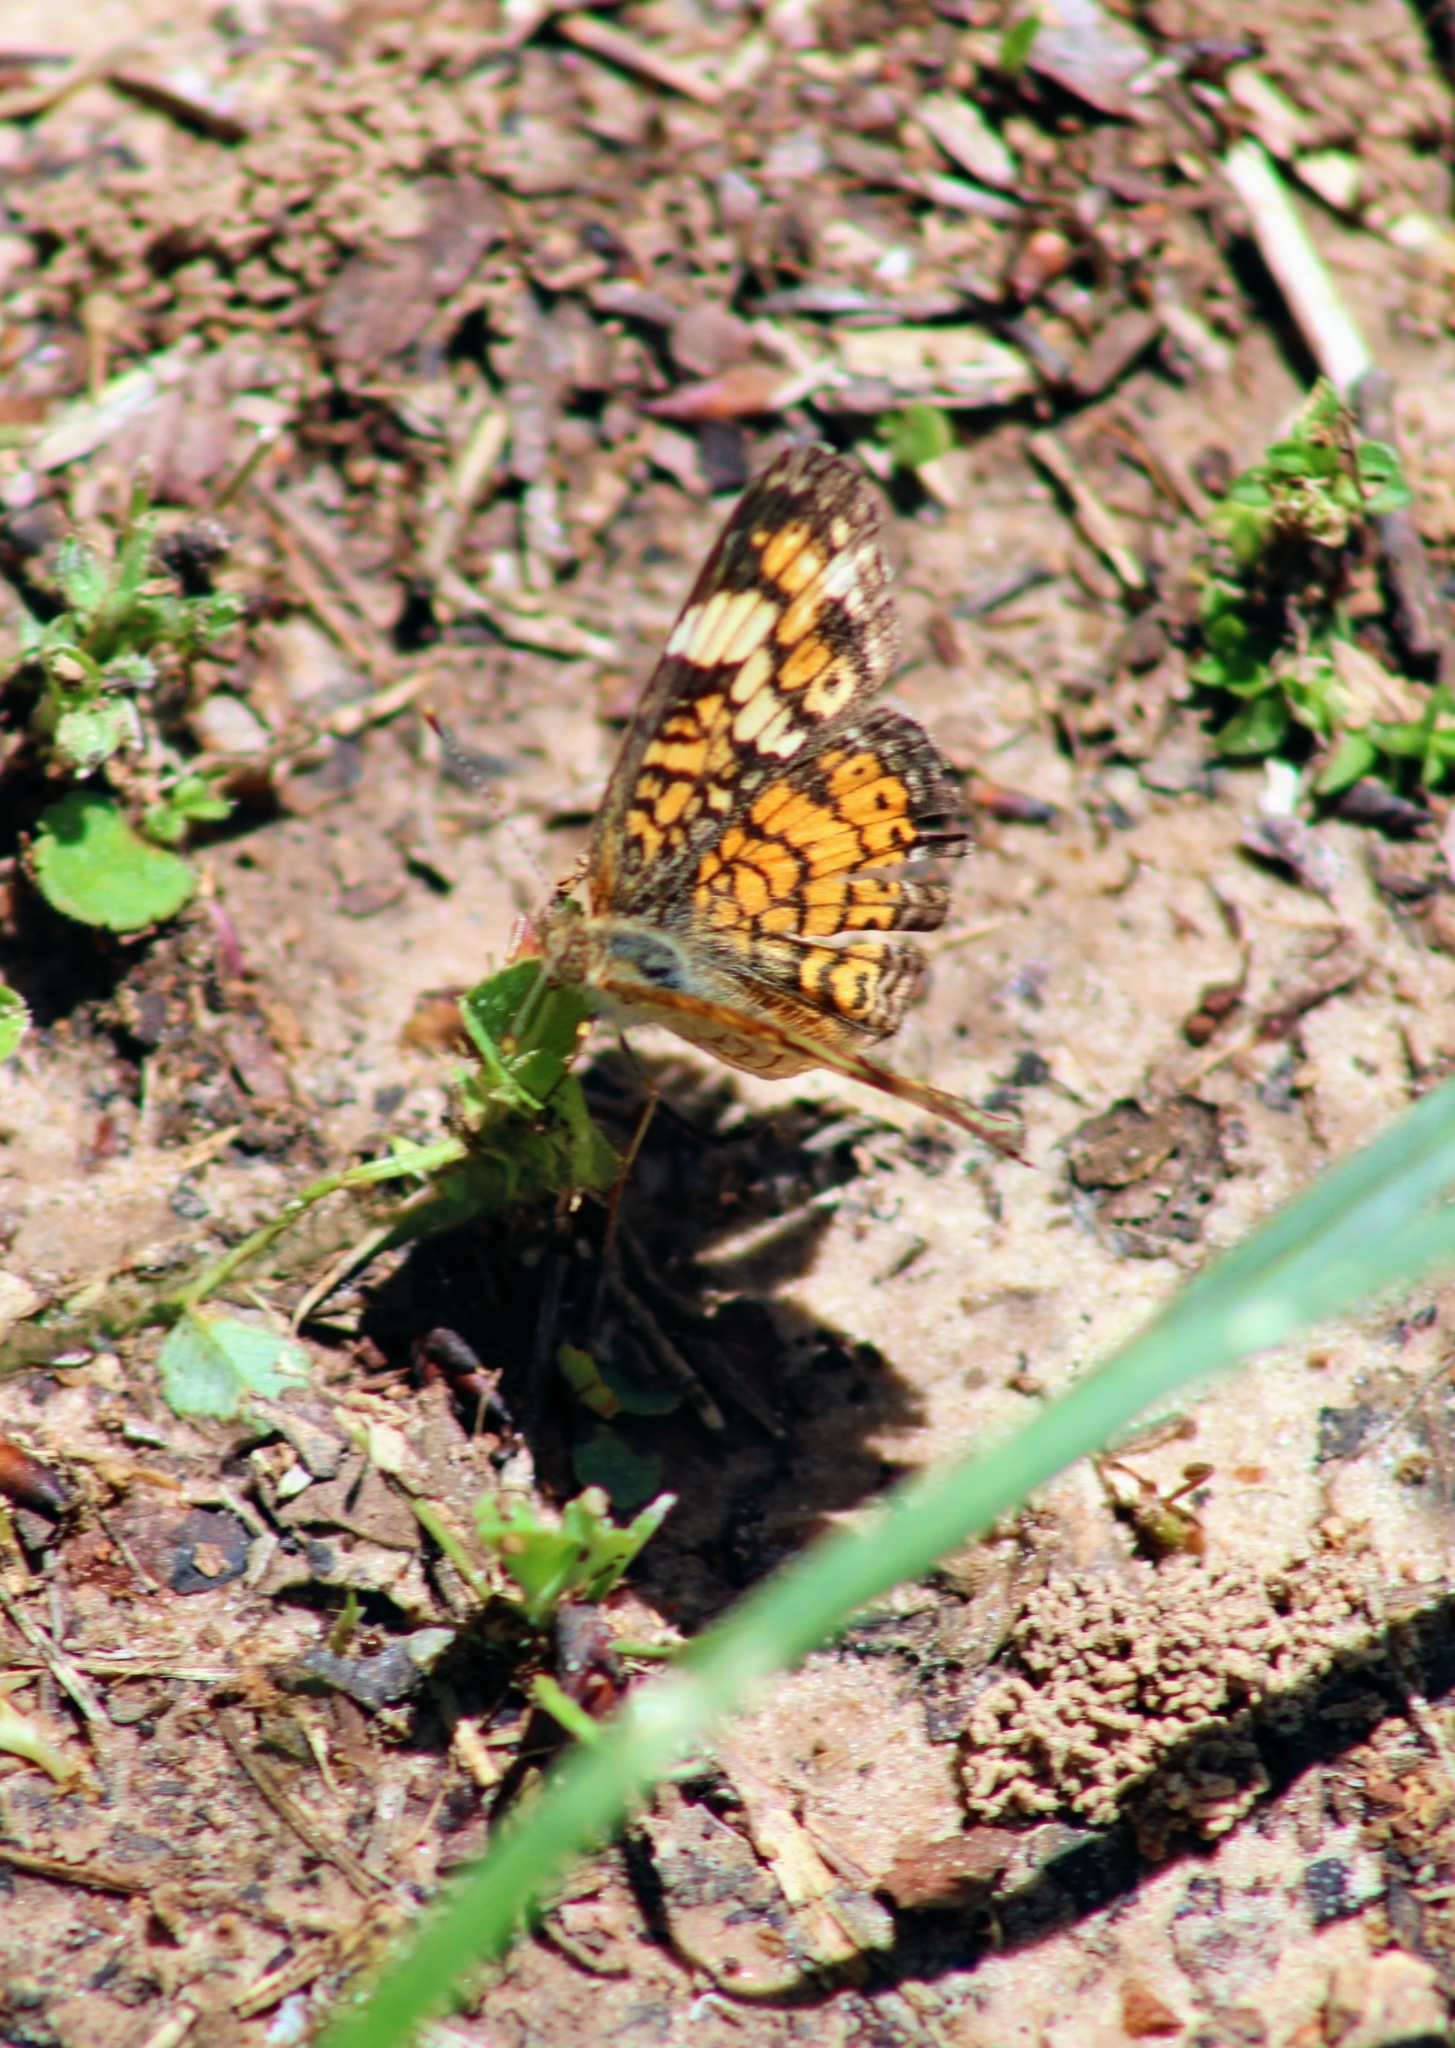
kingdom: Animalia
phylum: Arthropoda
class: Insecta
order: Lepidoptera
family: Nymphalidae
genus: Phyciodes
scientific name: Phyciodes phaon
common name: Phaon crescent
